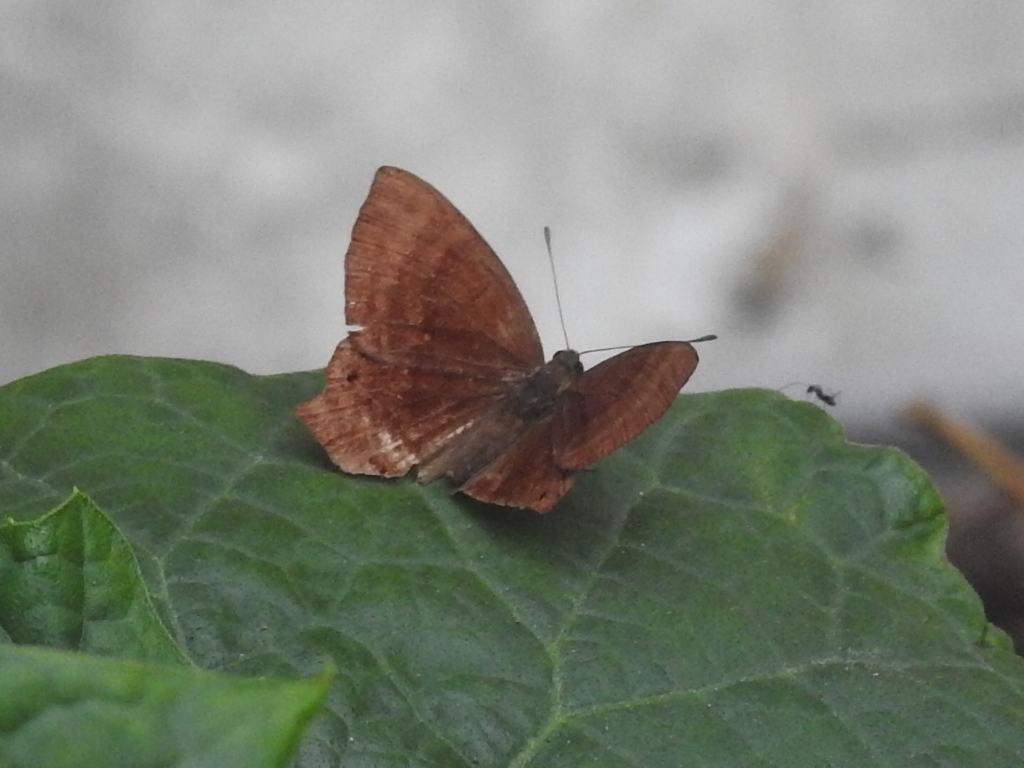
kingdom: Animalia
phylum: Arthropoda
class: Insecta
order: Lepidoptera
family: Lycaenidae
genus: Abisara
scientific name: Abisara echeria
